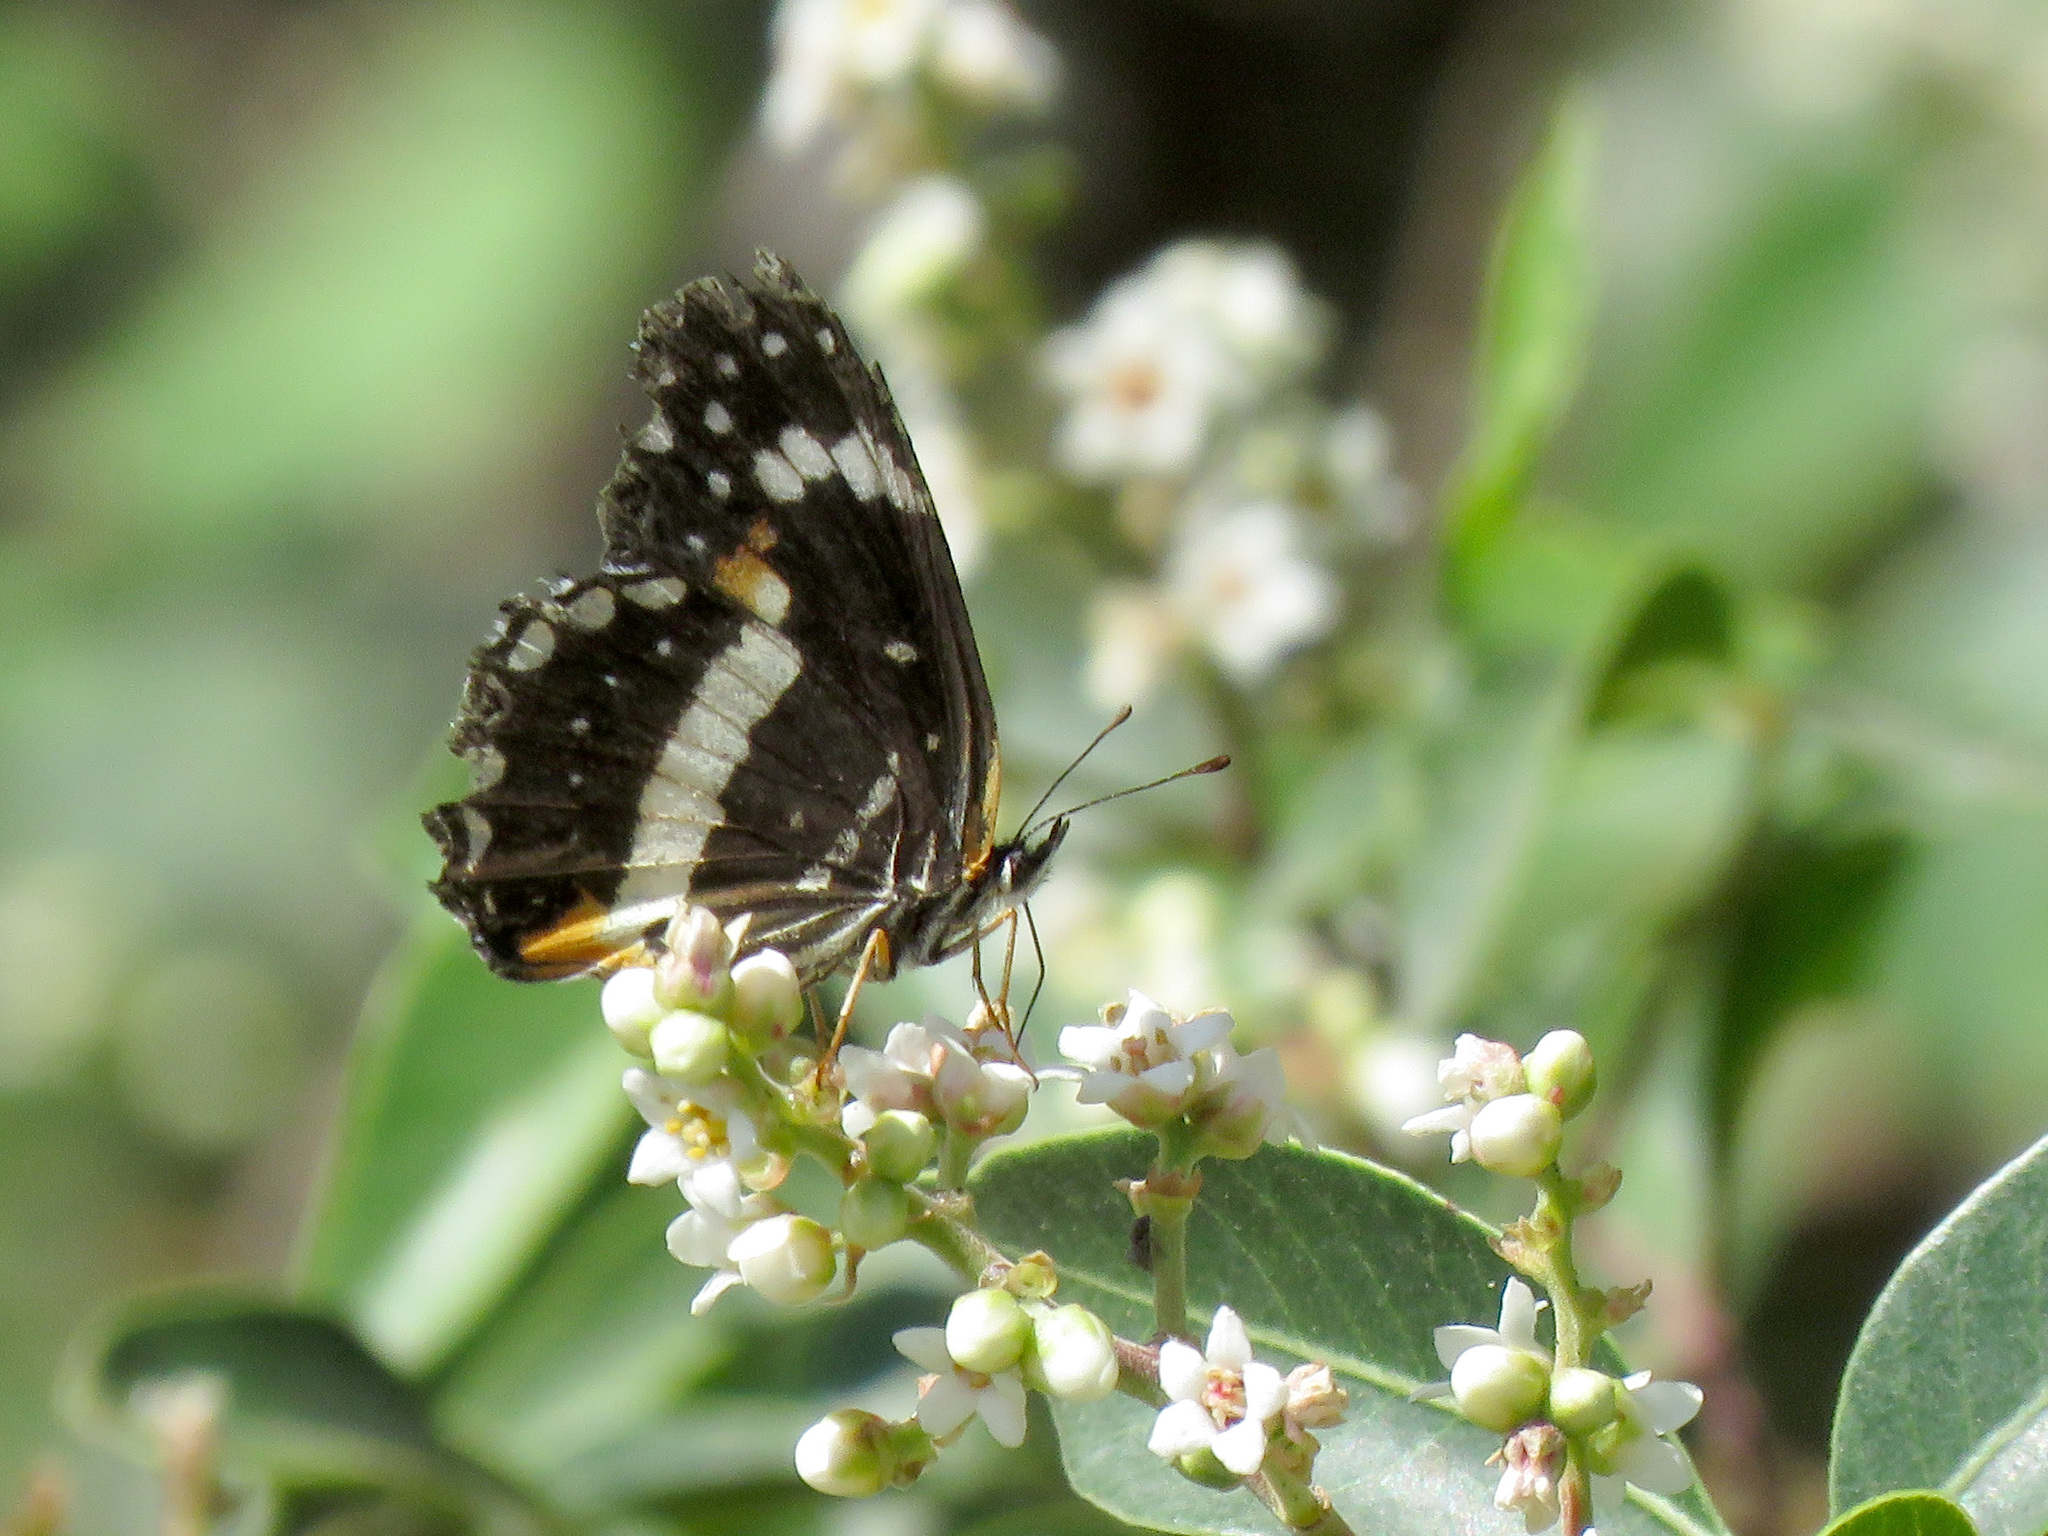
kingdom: Animalia
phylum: Arthropoda
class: Insecta
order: Lepidoptera
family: Nymphalidae
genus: Chlosyne
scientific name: Chlosyne lacinia
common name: Bordered patch
